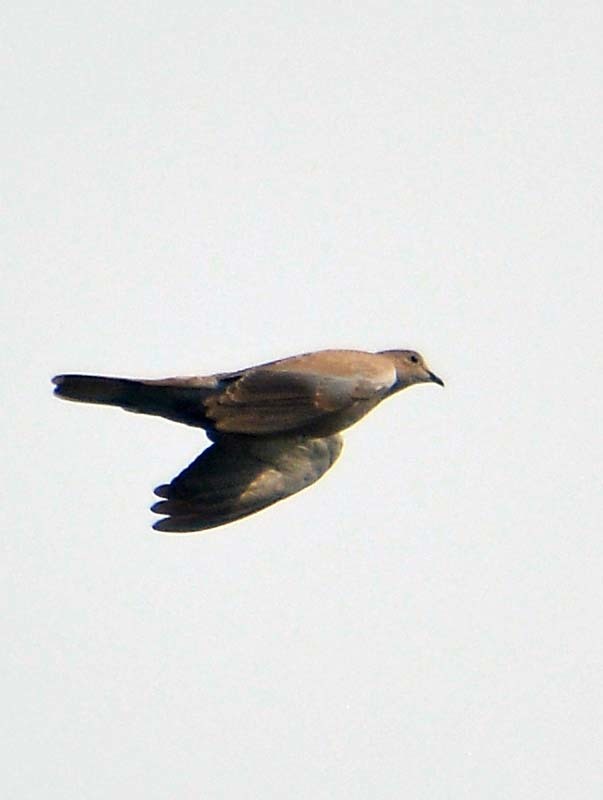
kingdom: Animalia
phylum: Chordata
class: Aves
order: Columbiformes
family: Columbidae
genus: Streptopelia
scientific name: Streptopelia decaocto
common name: Eurasian collared dove
